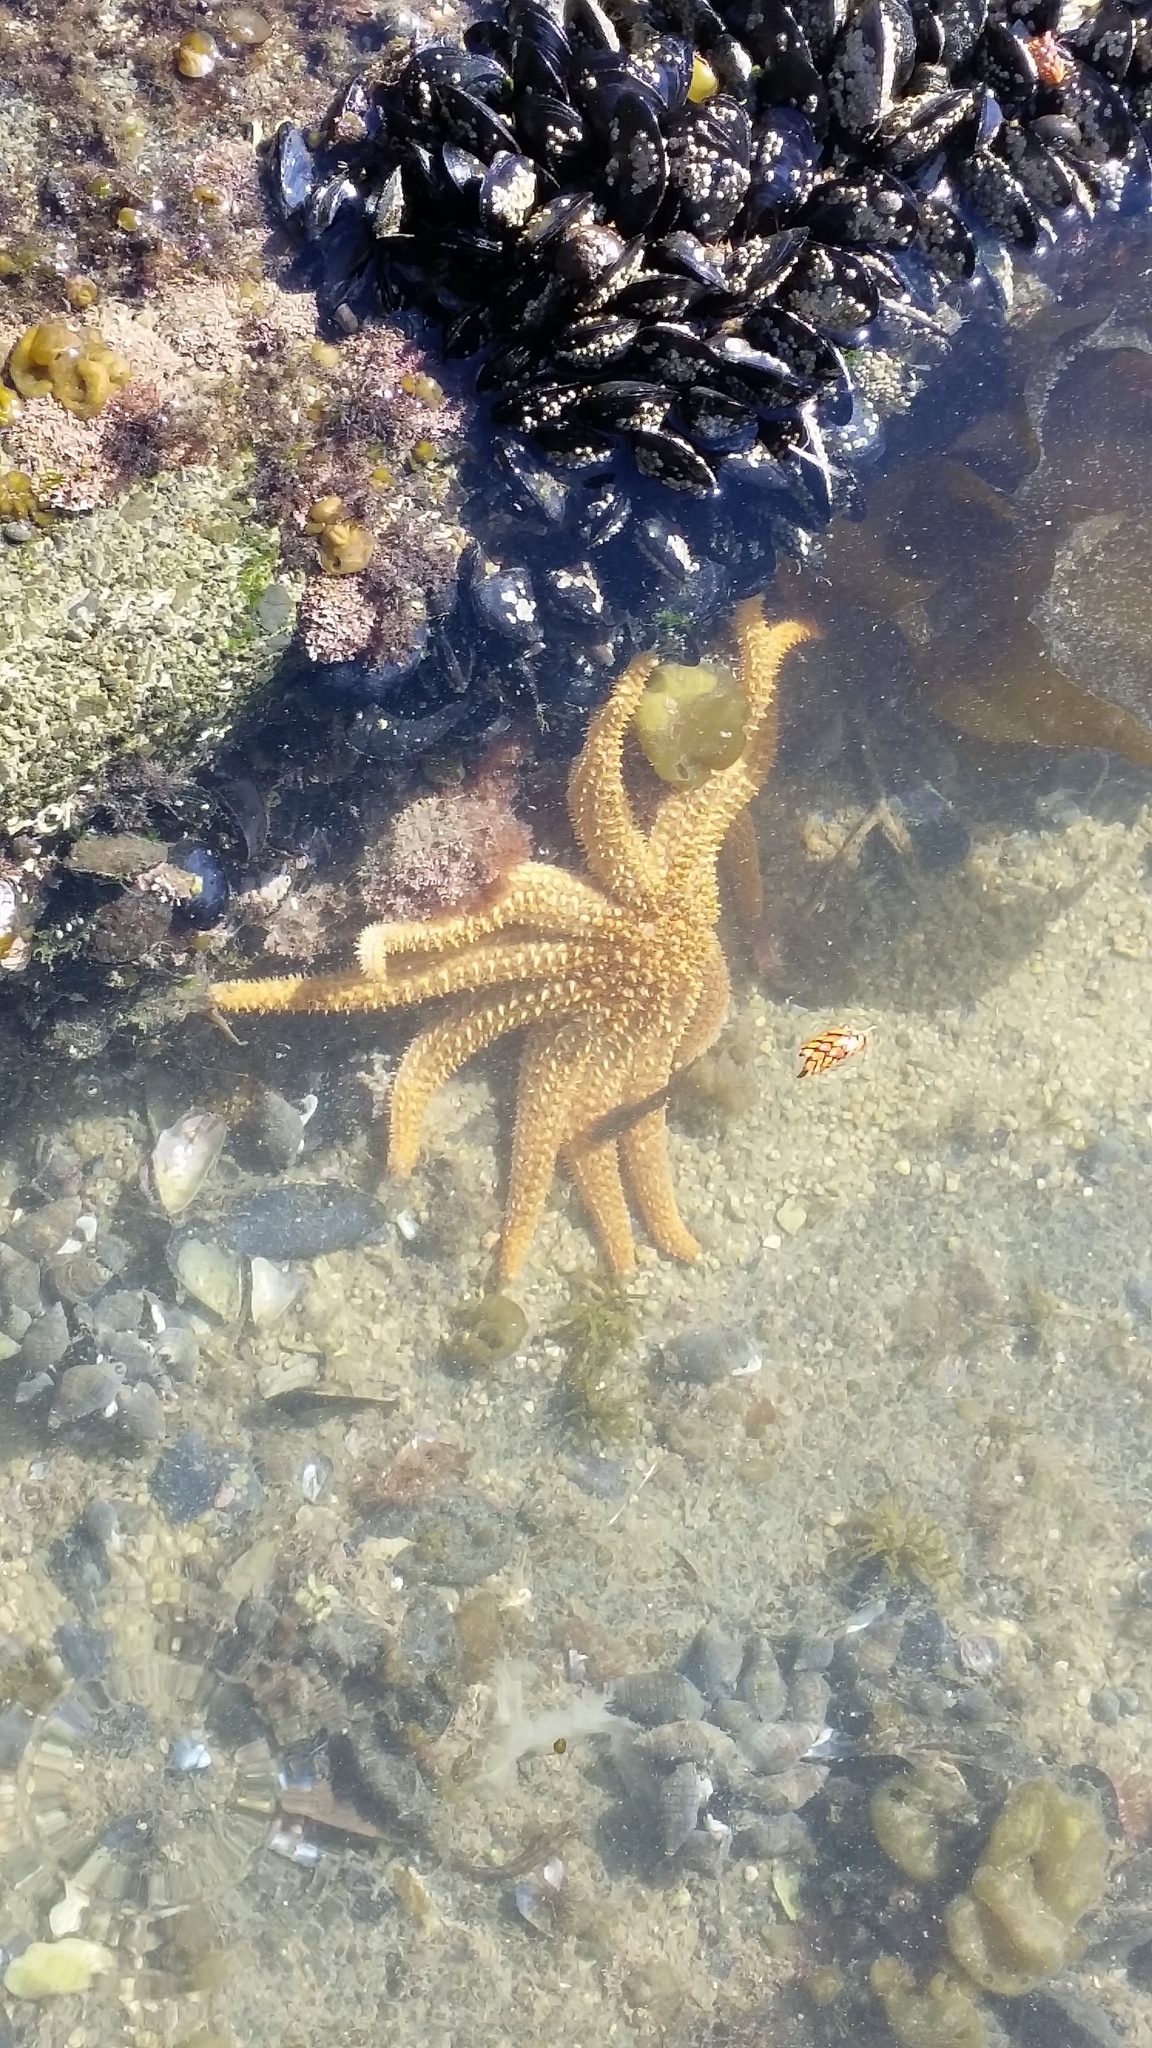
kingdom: Animalia
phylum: Echinodermata
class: Asteroidea
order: Forcipulatida
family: Asteriidae
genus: Coscinasterias
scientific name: Coscinasterias muricata
